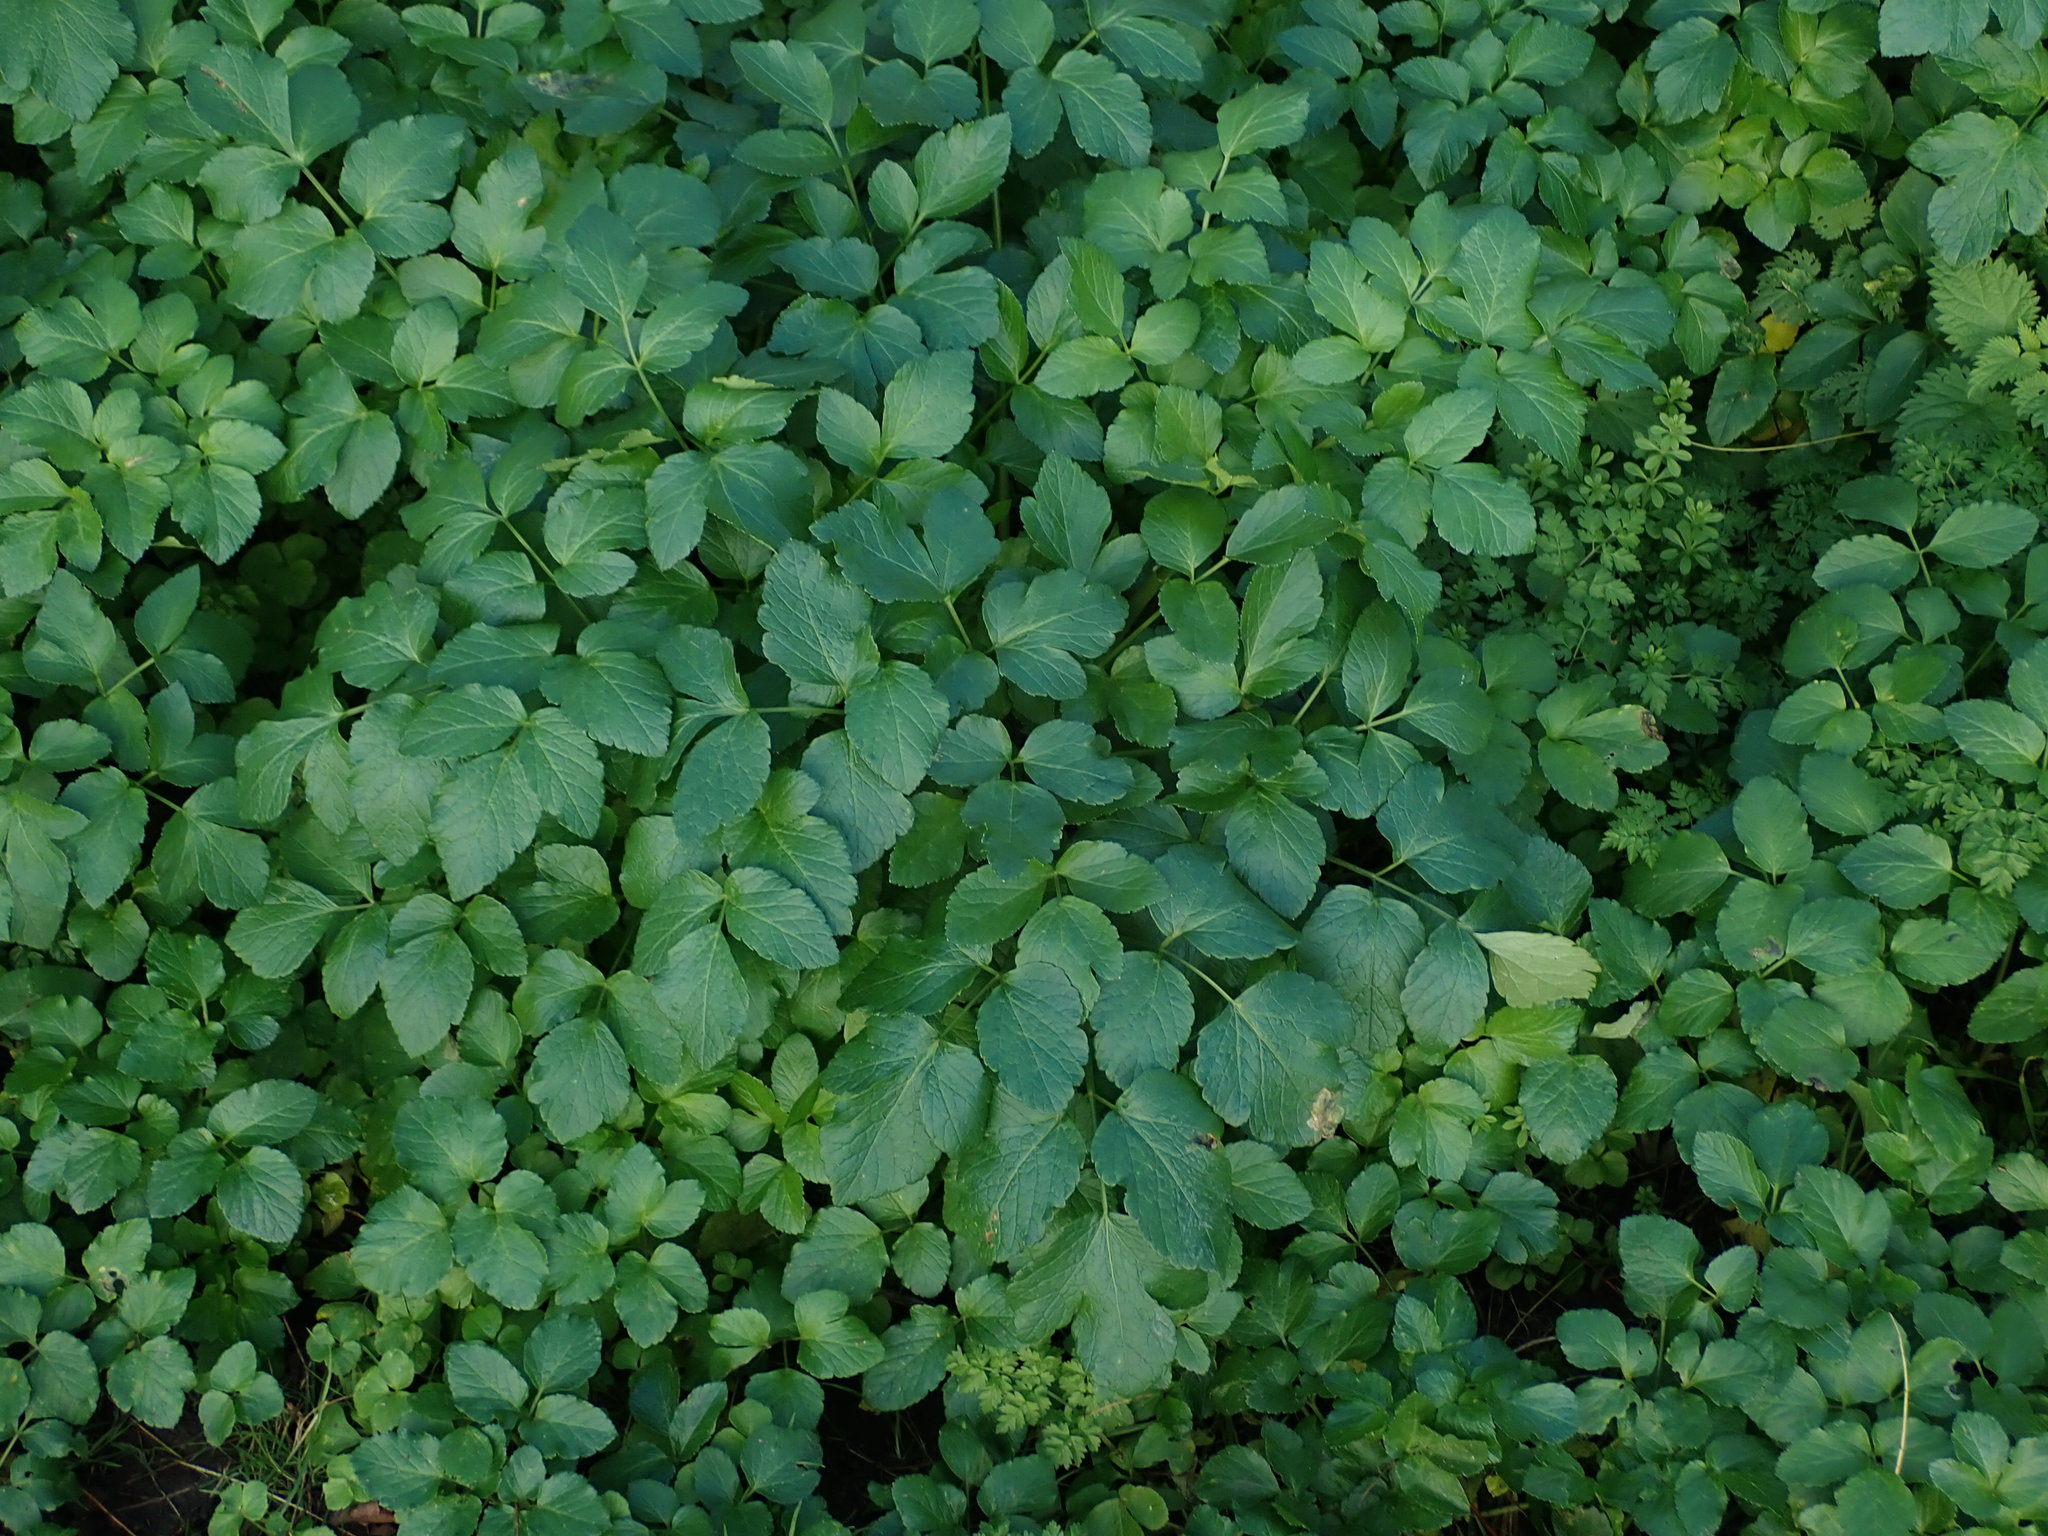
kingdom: Plantae
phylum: Tracheophyta
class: Magnoliopsida
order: Apiales
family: Apiaceae
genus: Smyrnium
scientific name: Smyrnium olusatrum
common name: Alexanders
